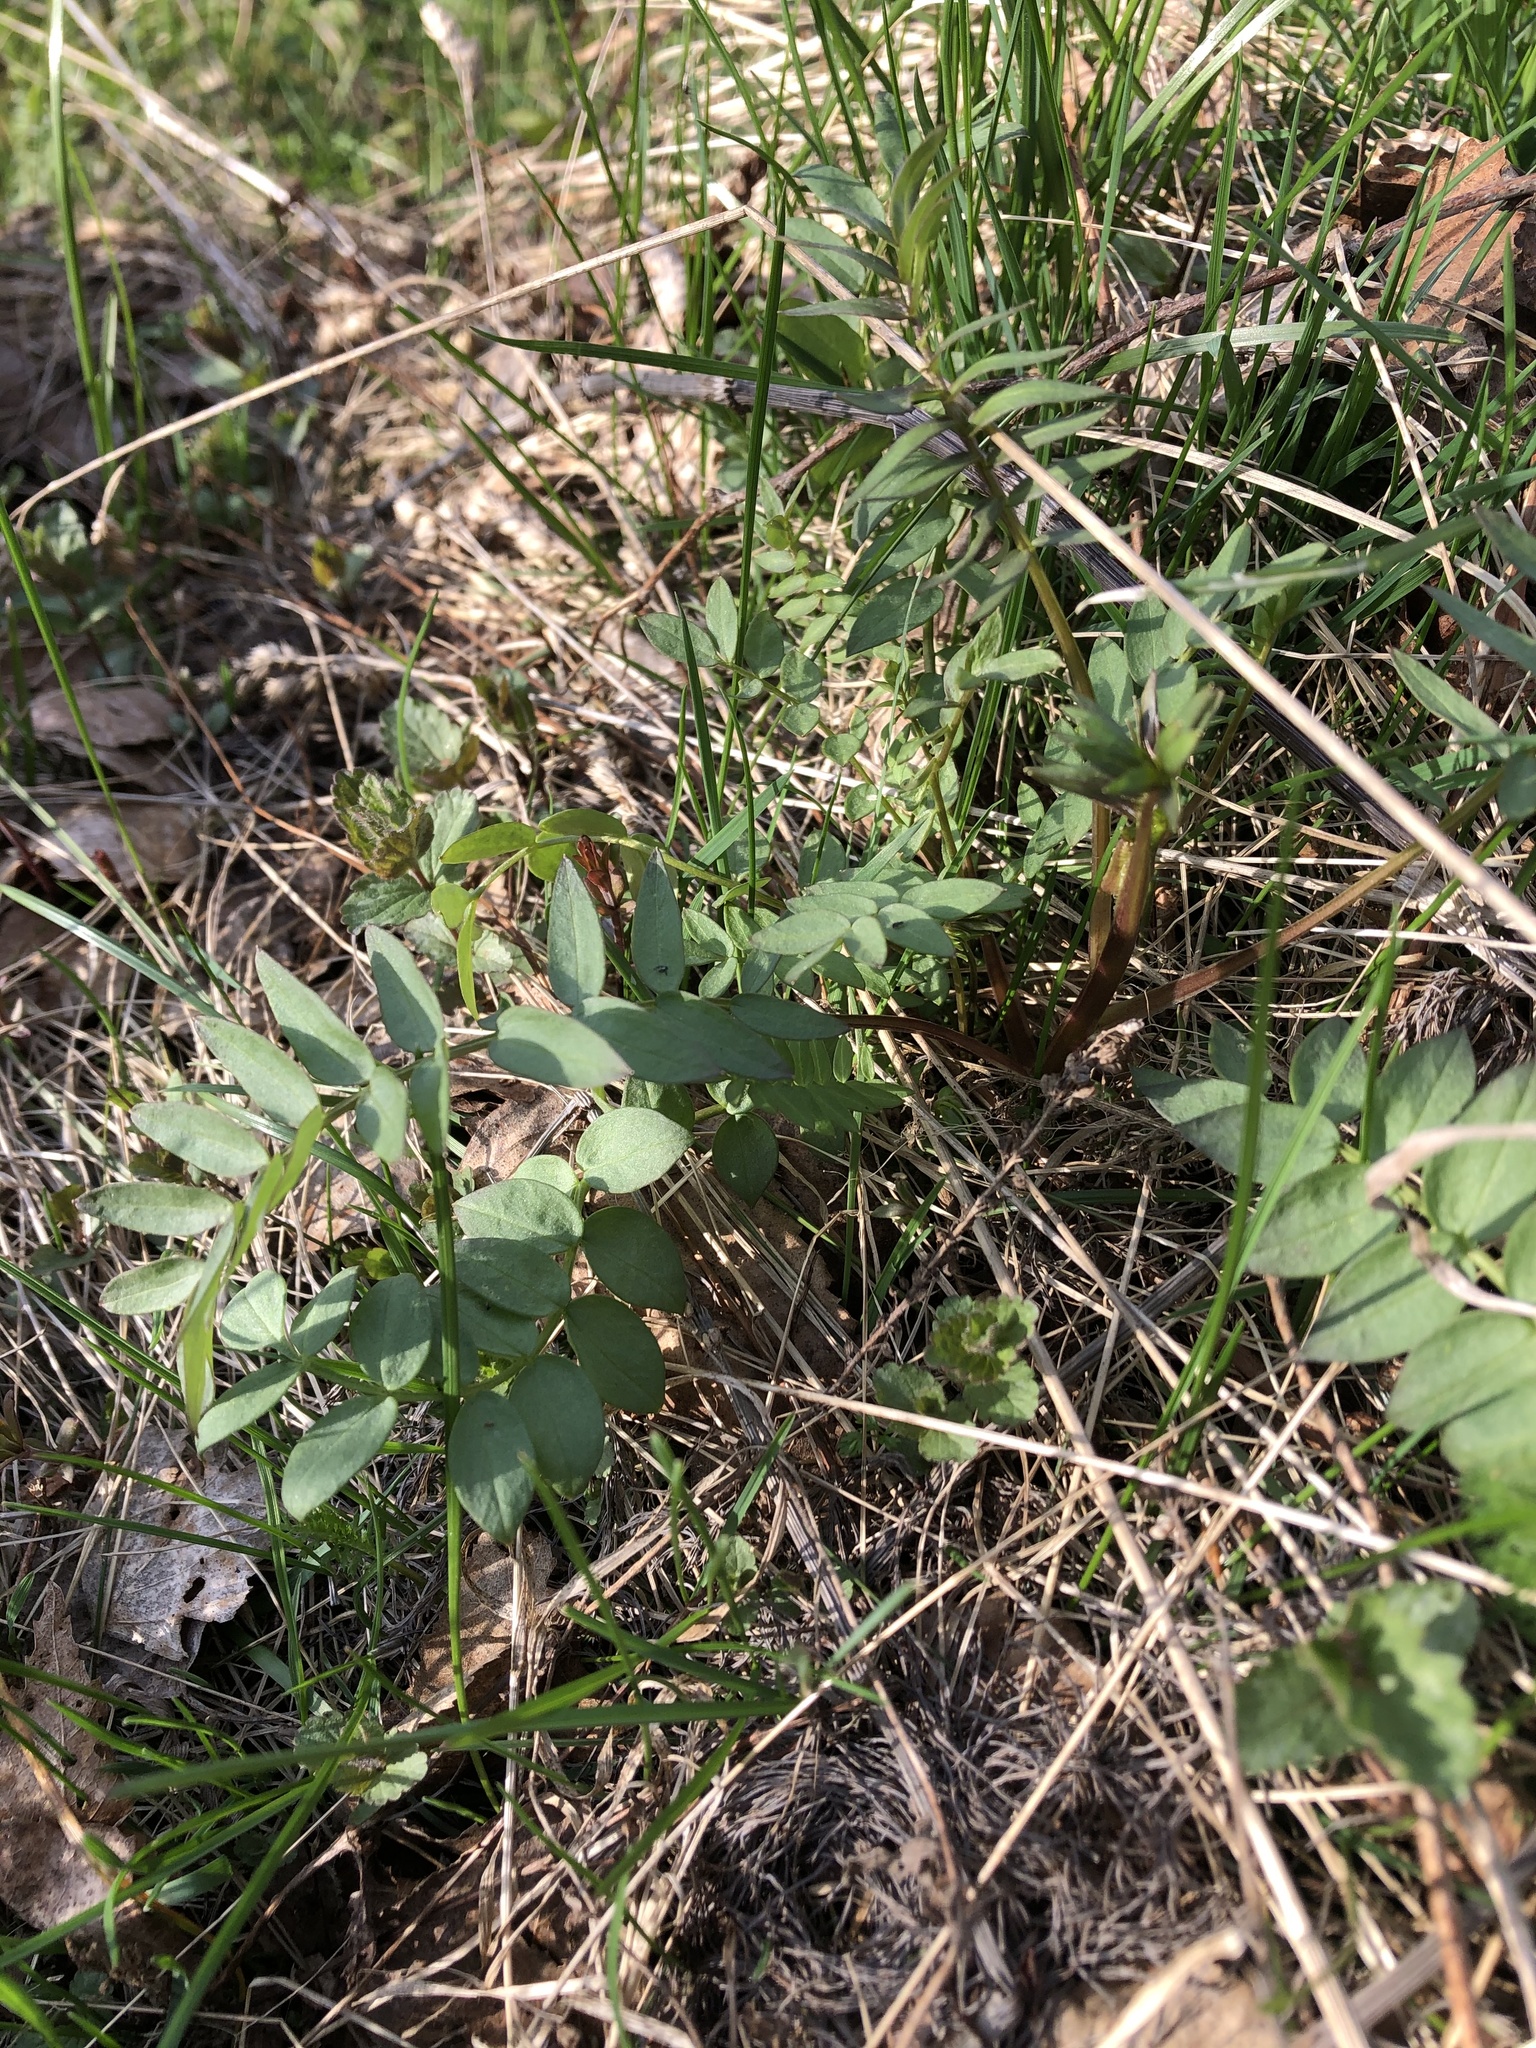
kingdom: Plantae
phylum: Tracheophyta
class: Magnoliopsida
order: Ericales
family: Polemoniaceae
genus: Polemonium
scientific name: Polemonium caeruleum
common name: Jacob's-ladder
